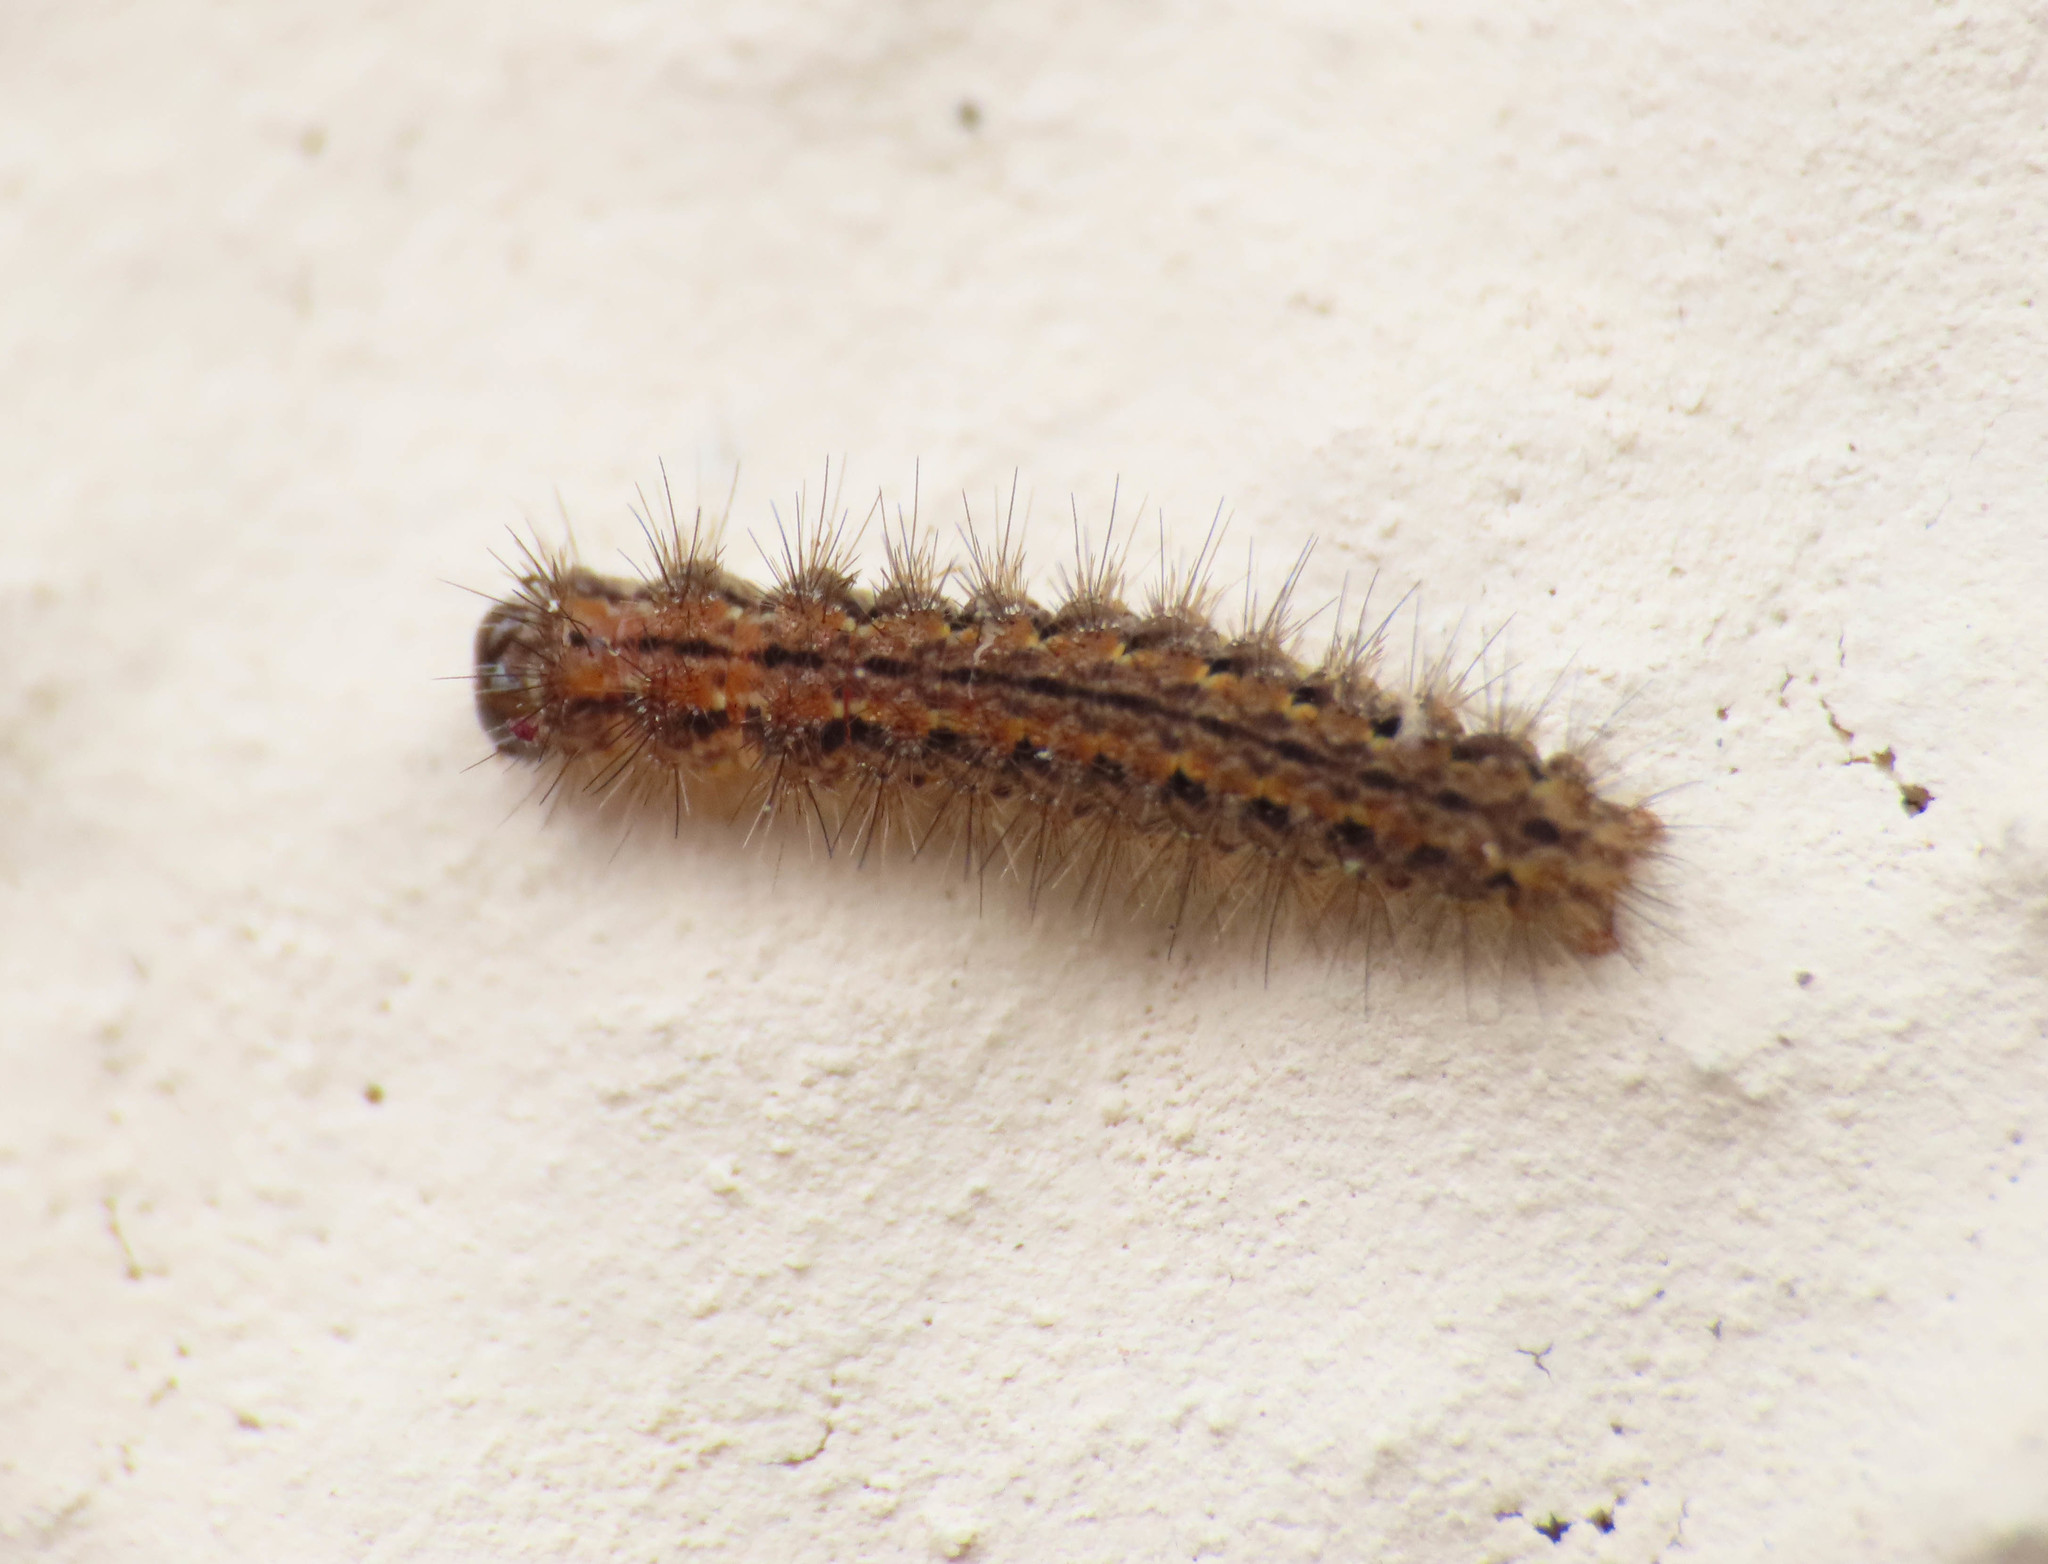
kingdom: Animalia
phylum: Arthropoda
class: Insecta
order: Lepidoptera
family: Erebidae
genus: Eilema
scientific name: Eilema caniola
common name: Hoary footman
